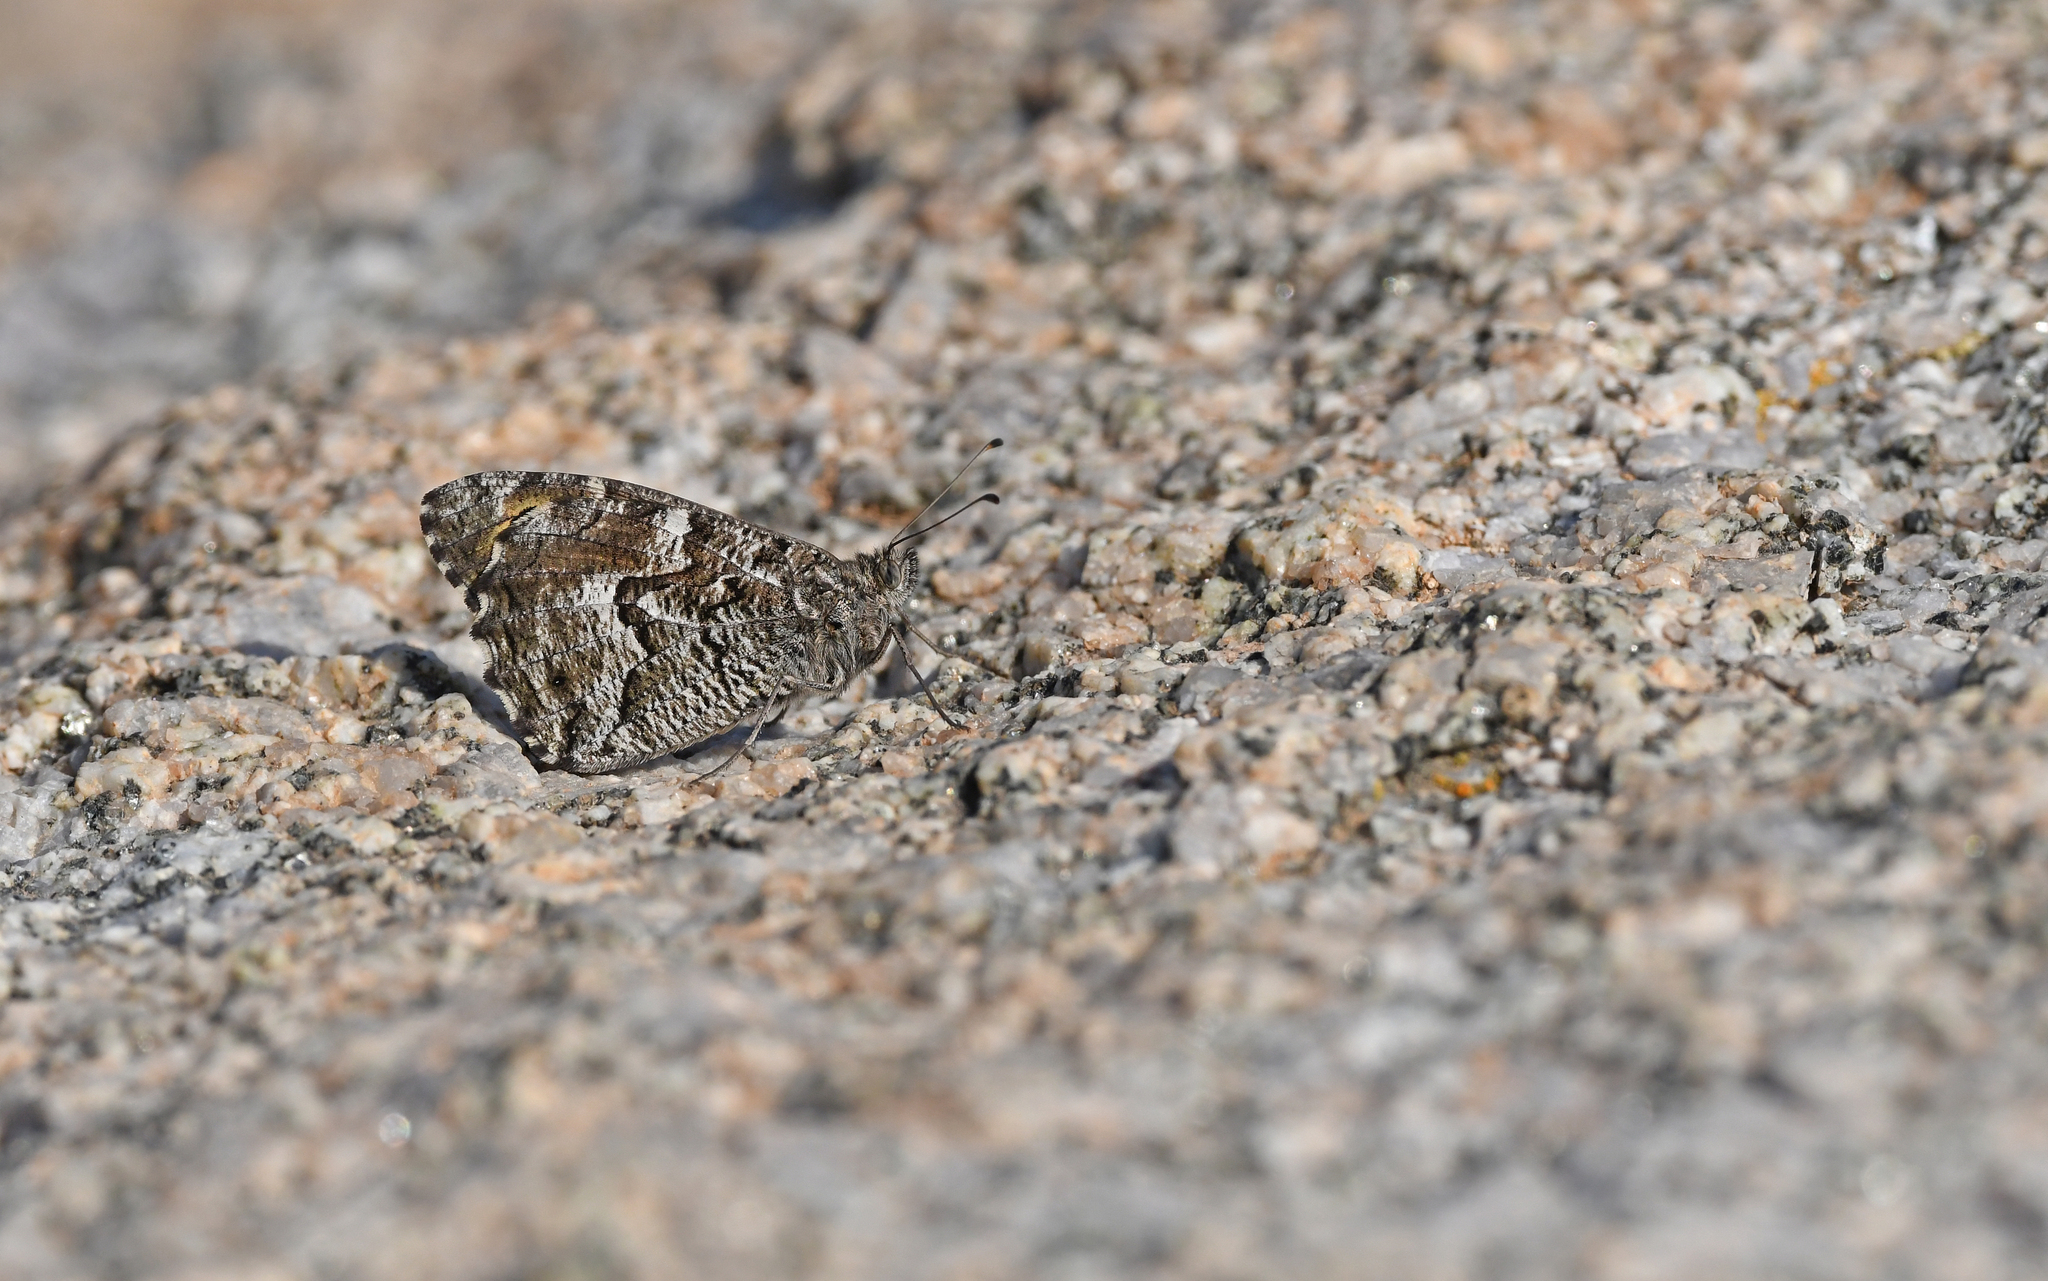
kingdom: Animalia
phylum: Arthropoda
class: Insecta
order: Lepidoptera
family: Nymphalidae
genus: Hipparchia
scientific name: Hipparchia algirica
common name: Mountain grayling
